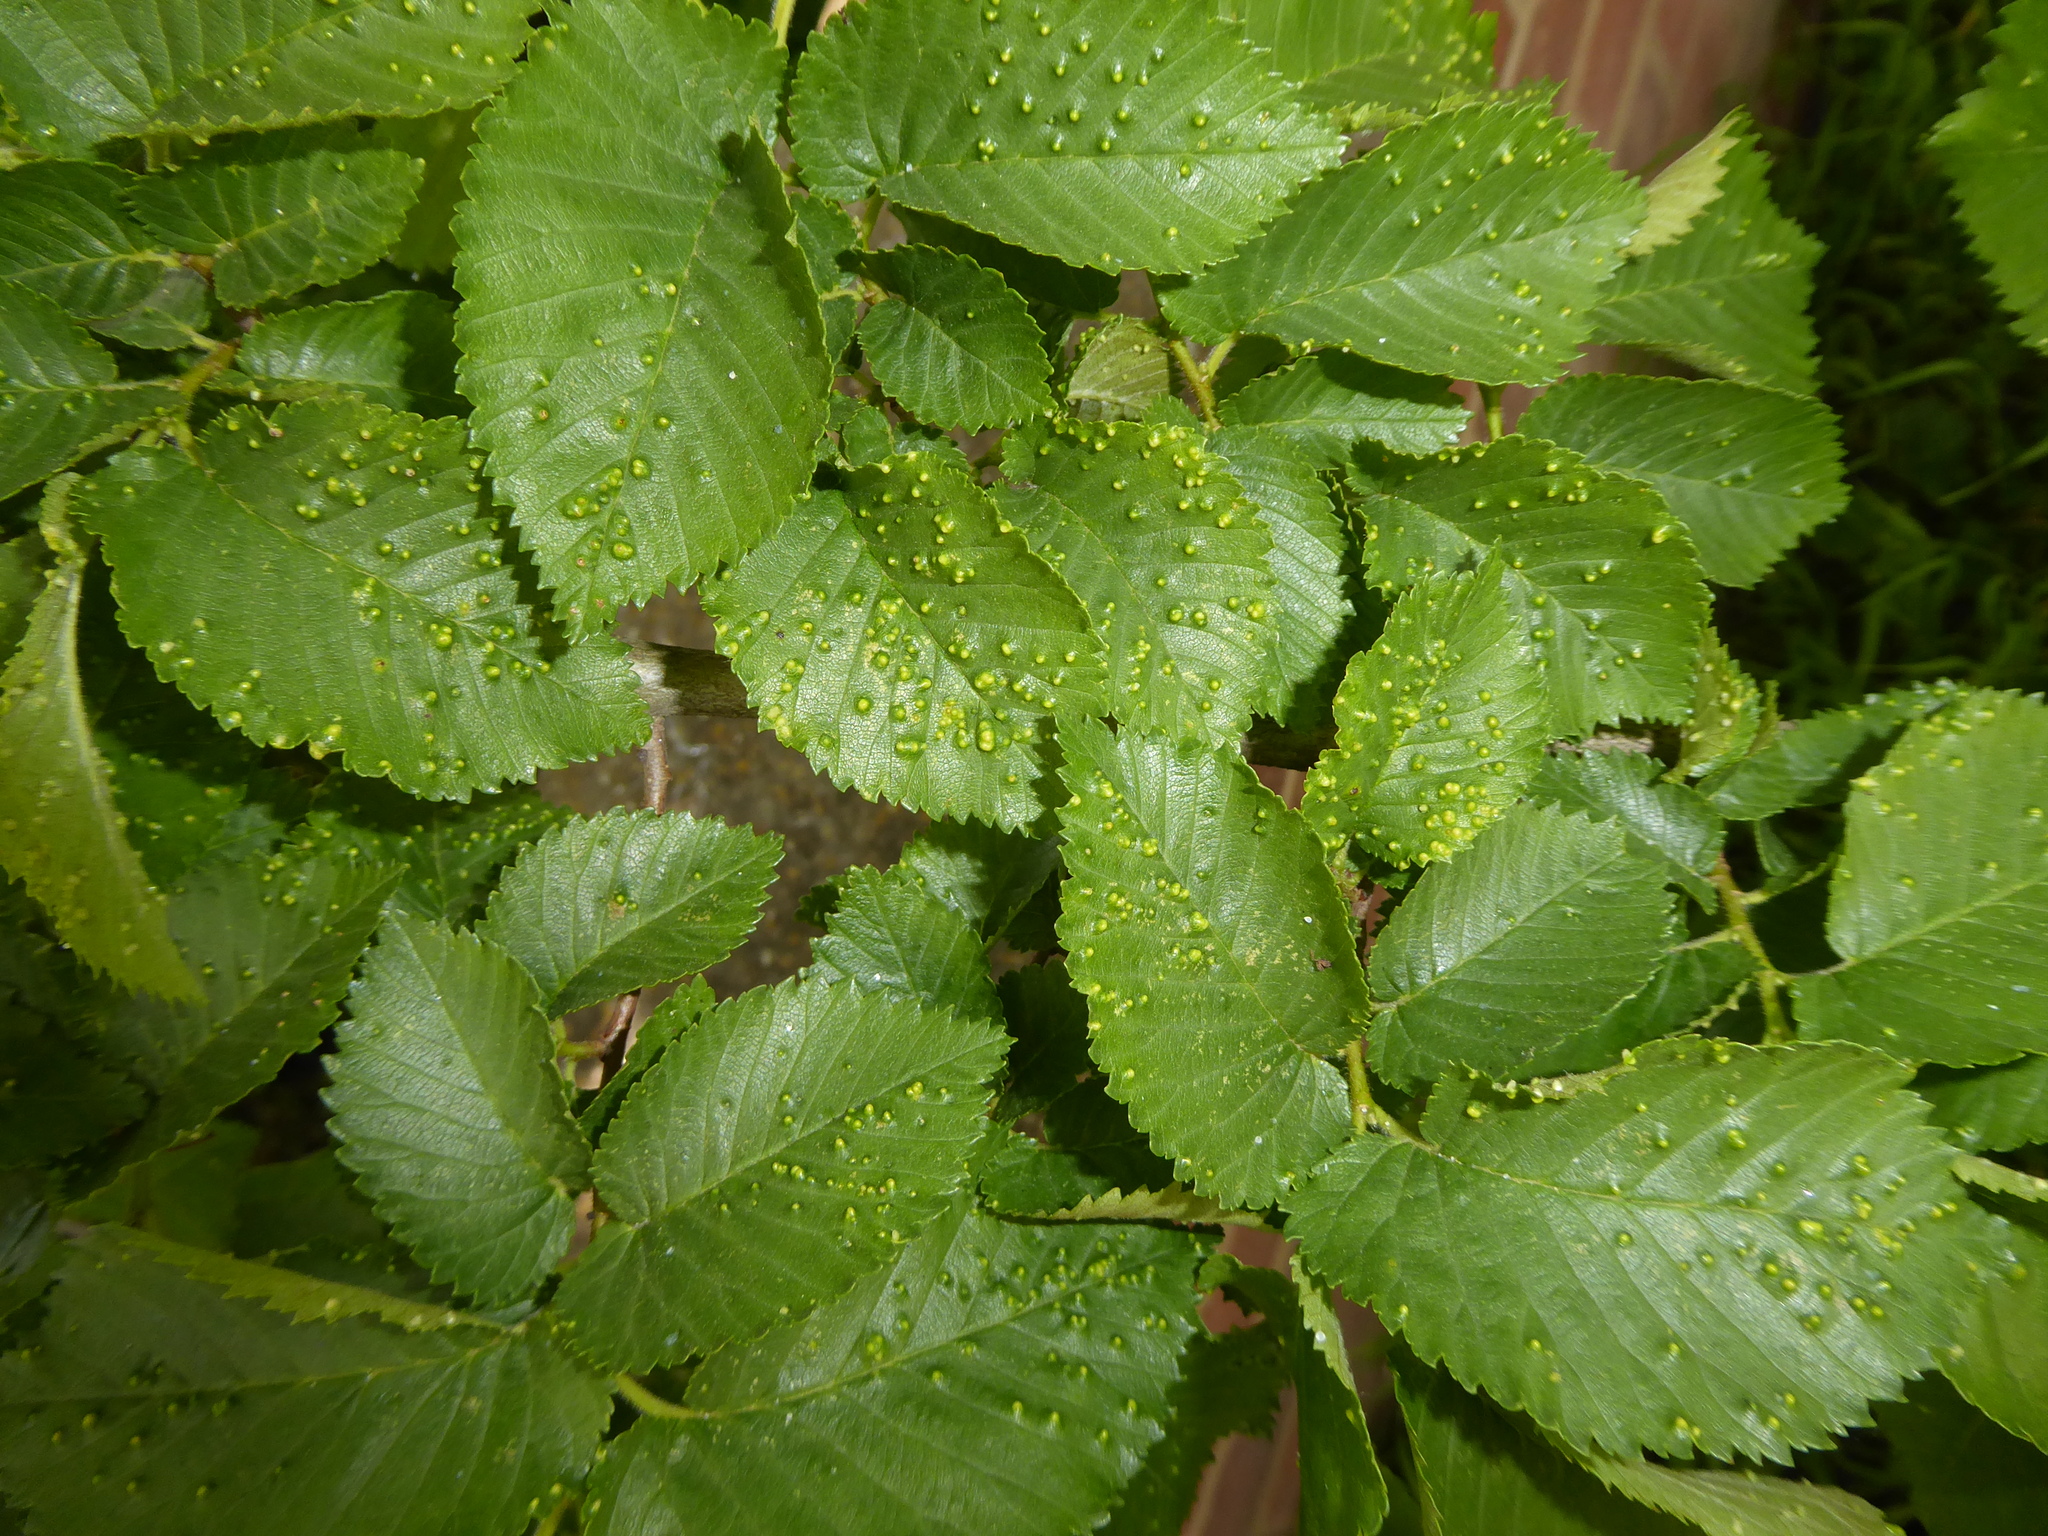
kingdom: Animalia
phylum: Arthropoda
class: Arachnida
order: Trombidiformes
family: Eriophyidae
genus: Aceria
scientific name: Aceria brevipunctata
